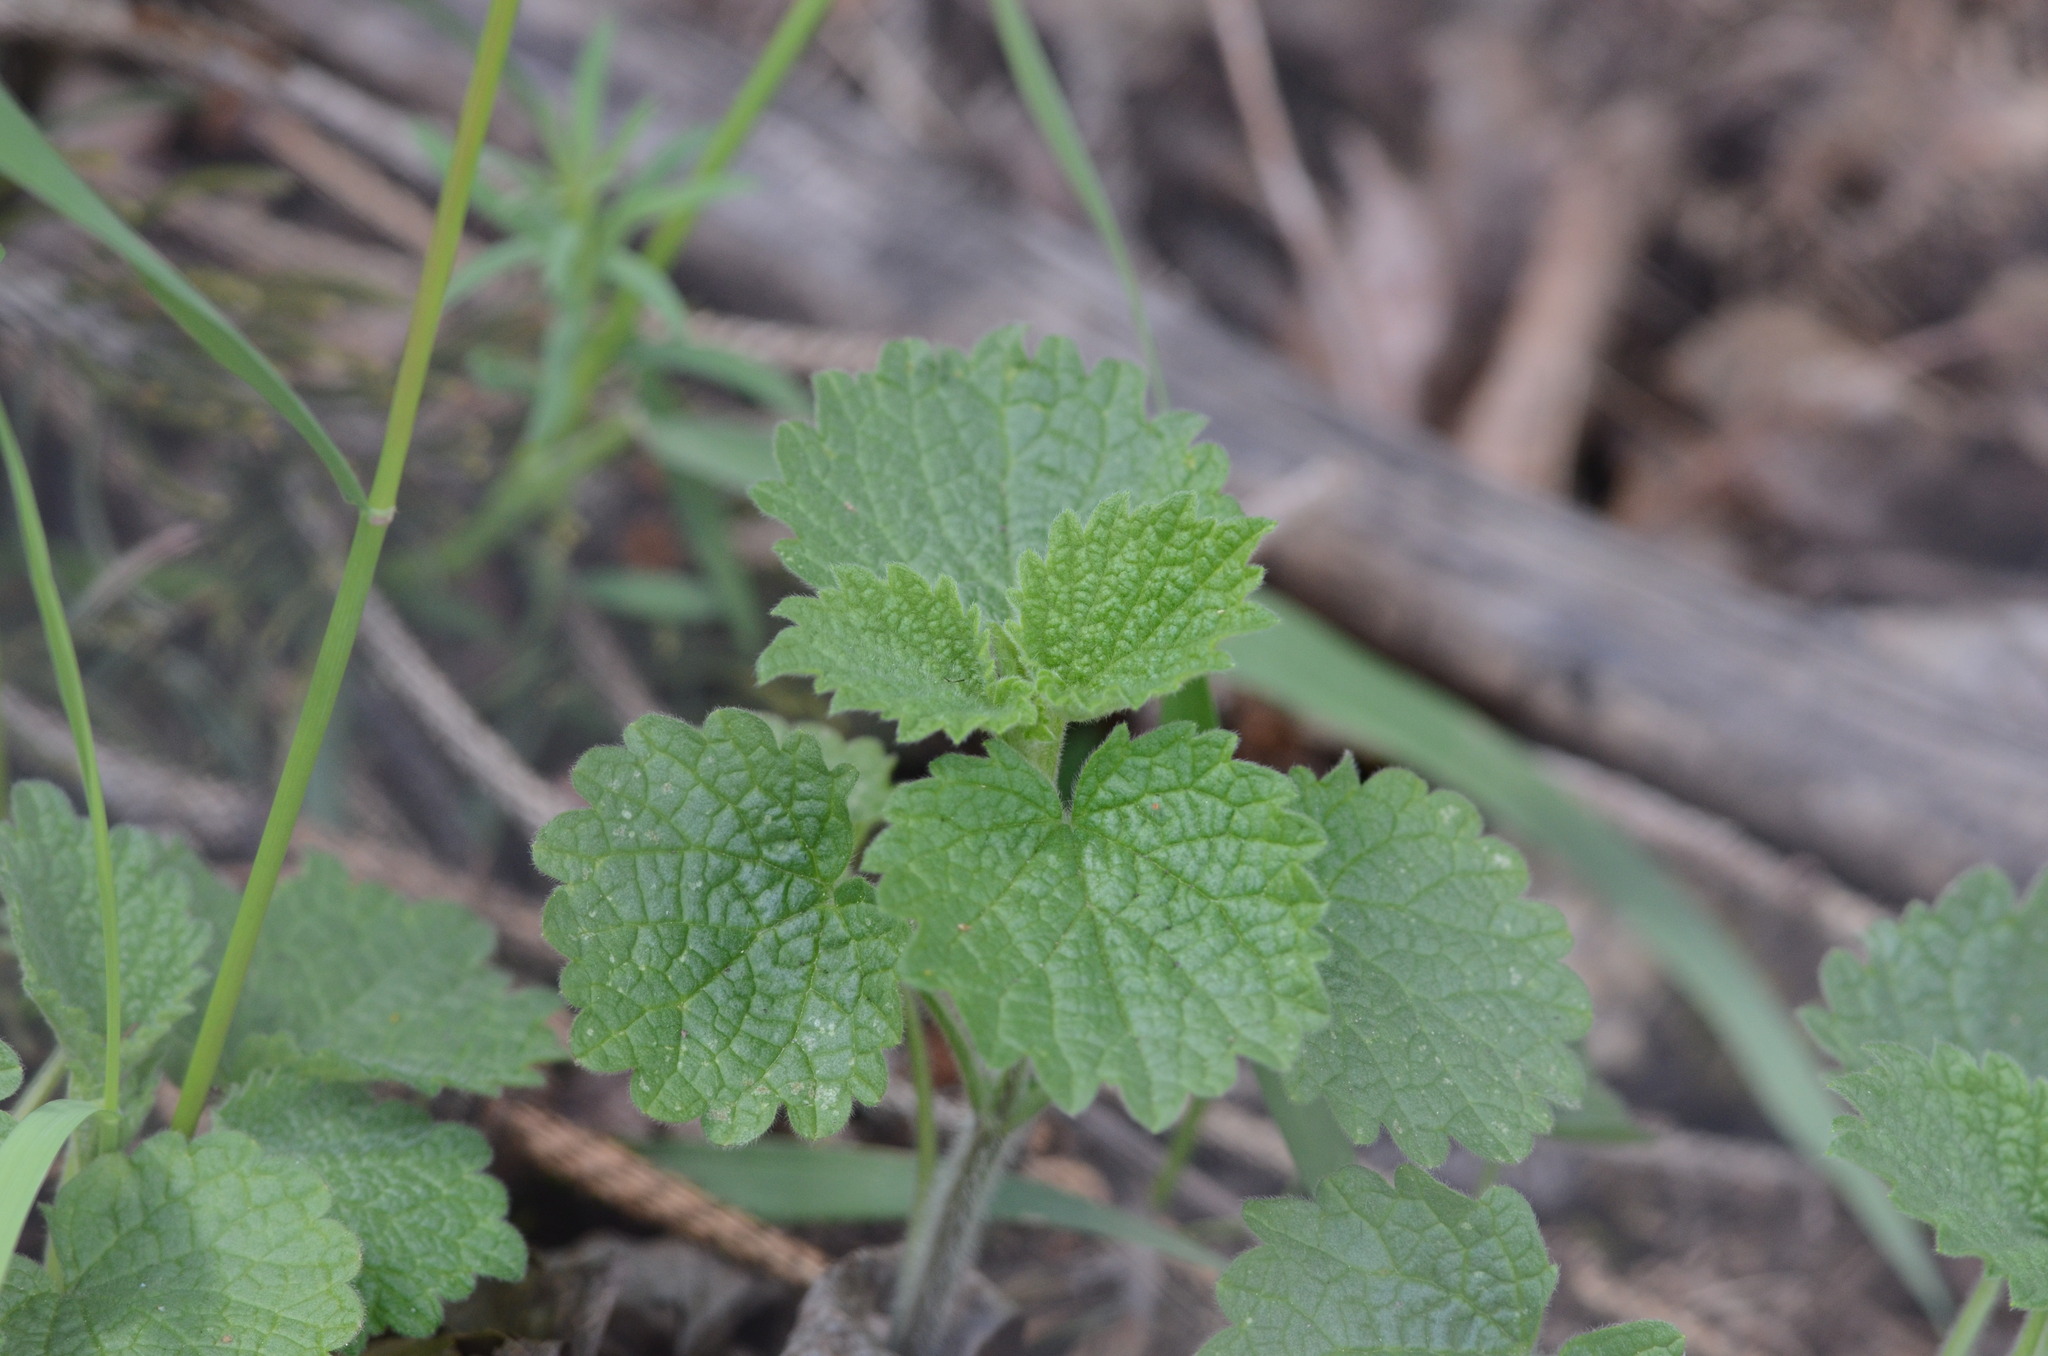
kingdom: Plantae
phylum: Tracheophyta
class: Magnoliopsida
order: Brassicales
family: Brassicaceae
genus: Alliaria
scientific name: Alliaria petiolata
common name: Garlic mustard
